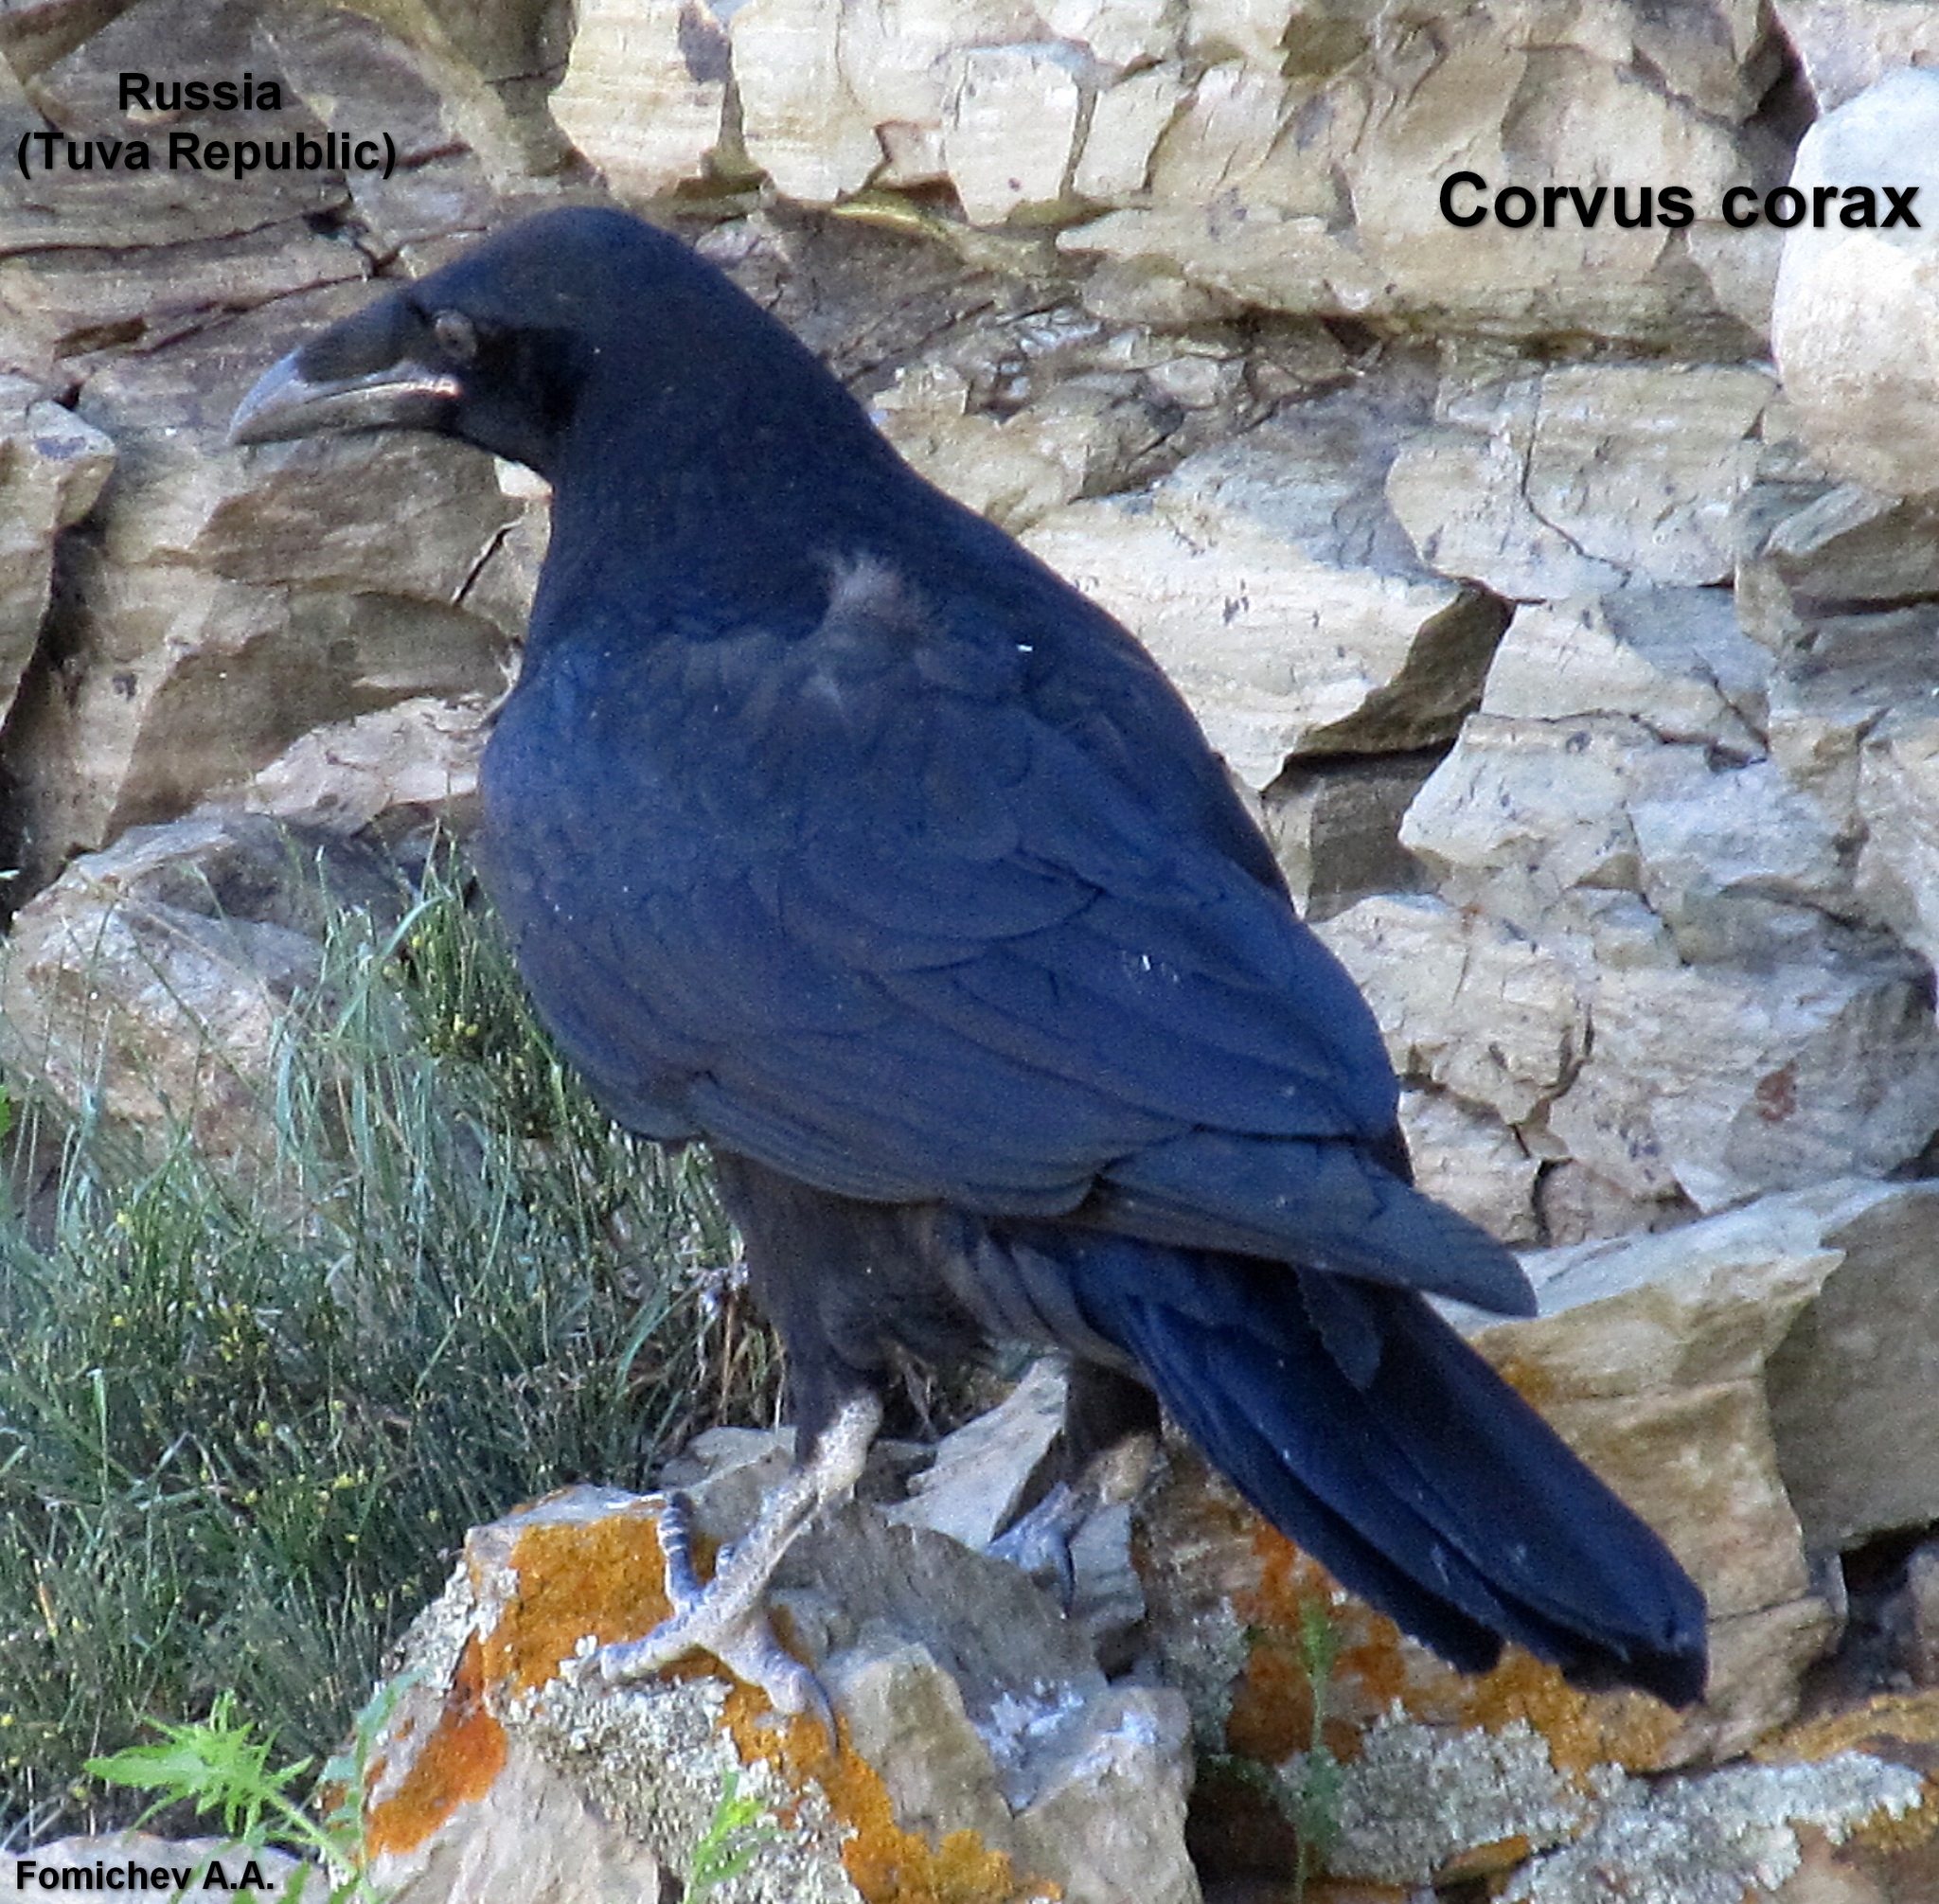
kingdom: Animalia
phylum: Chordata
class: Aves
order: Passeriformes
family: Corvidae
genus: Corvus
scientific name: Corvus corax
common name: Common raven
